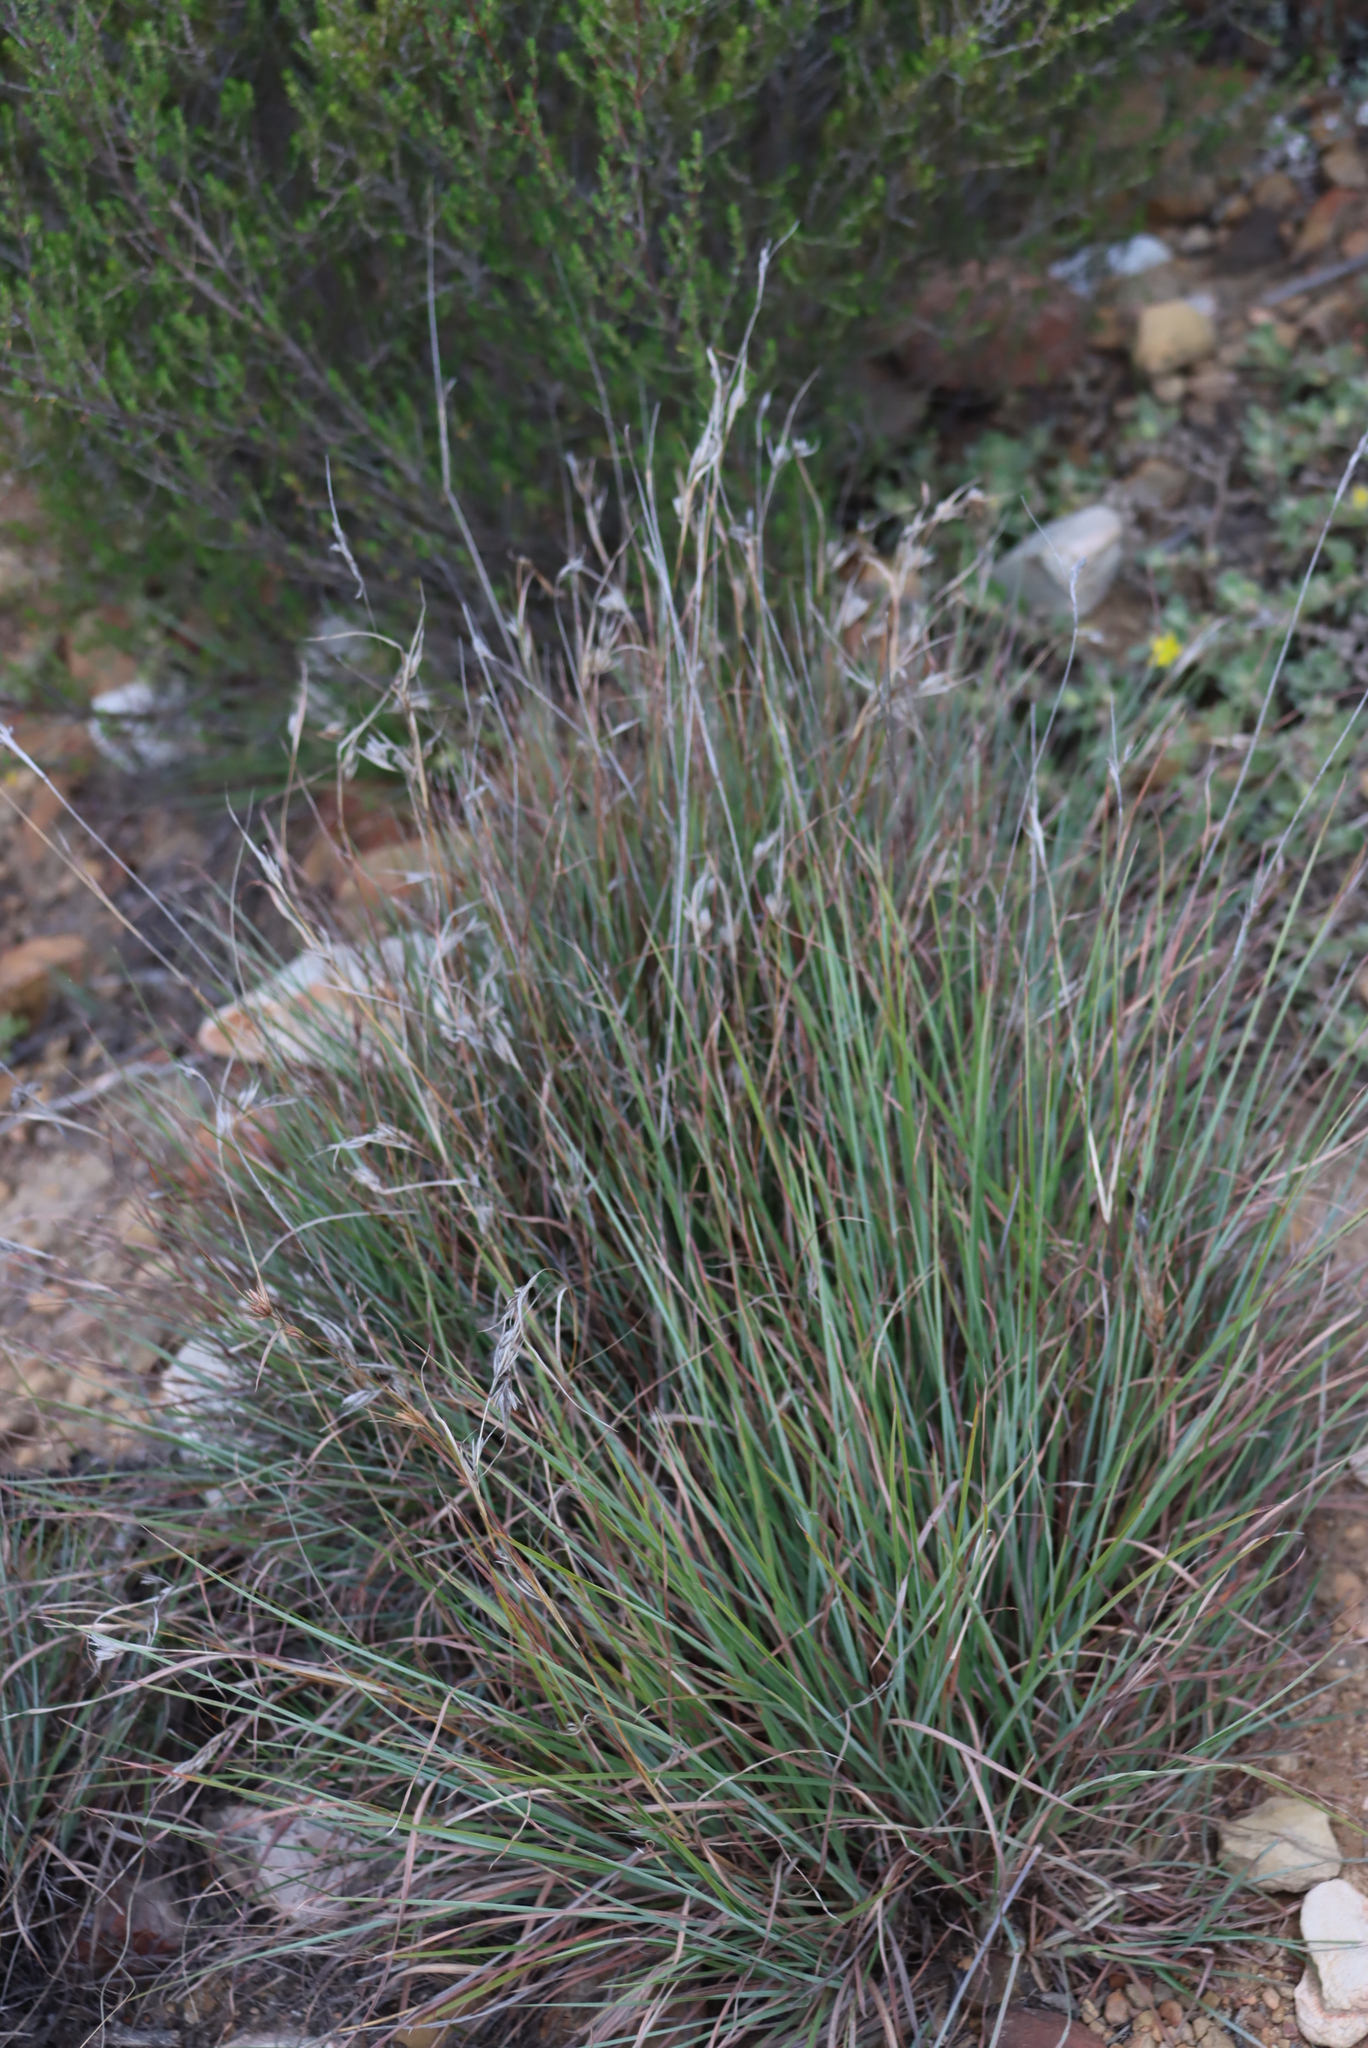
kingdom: Plantae
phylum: Tracheophyta
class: Liliopsida
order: Poales
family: Poaceae
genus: Themeda
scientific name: Themeda triandra
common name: Kangaroo grass
